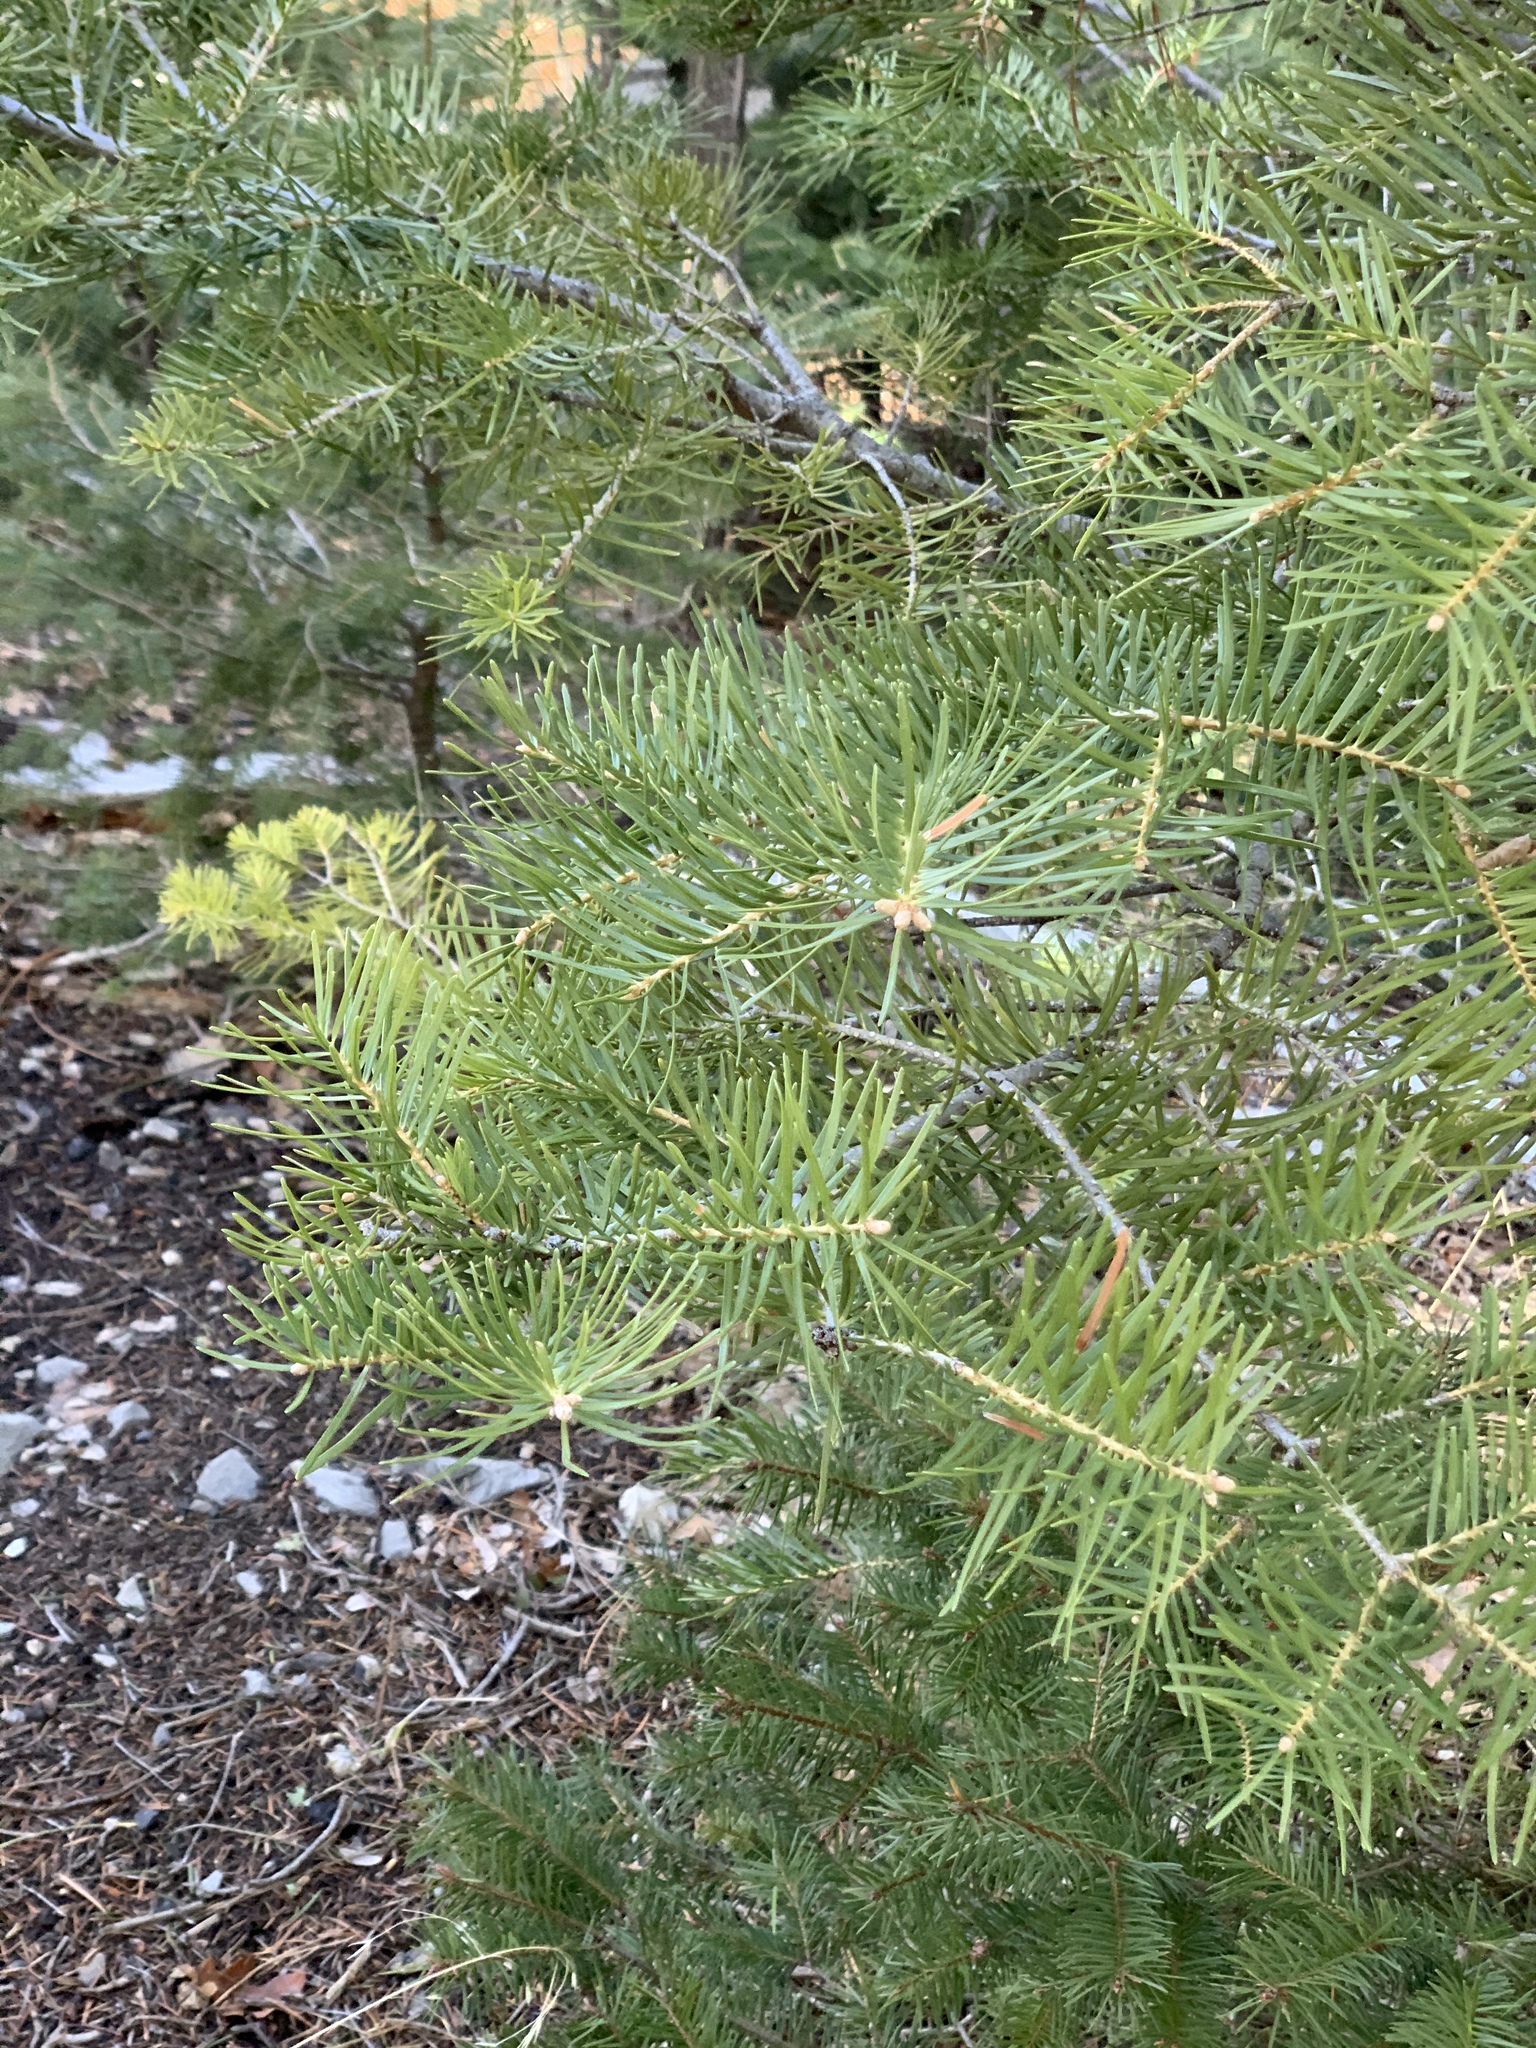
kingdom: Plantae
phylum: Tracheophyta
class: Pinopsida
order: Pinales
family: Pinaceae
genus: Abies
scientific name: Abies concolor
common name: Colorado fir
